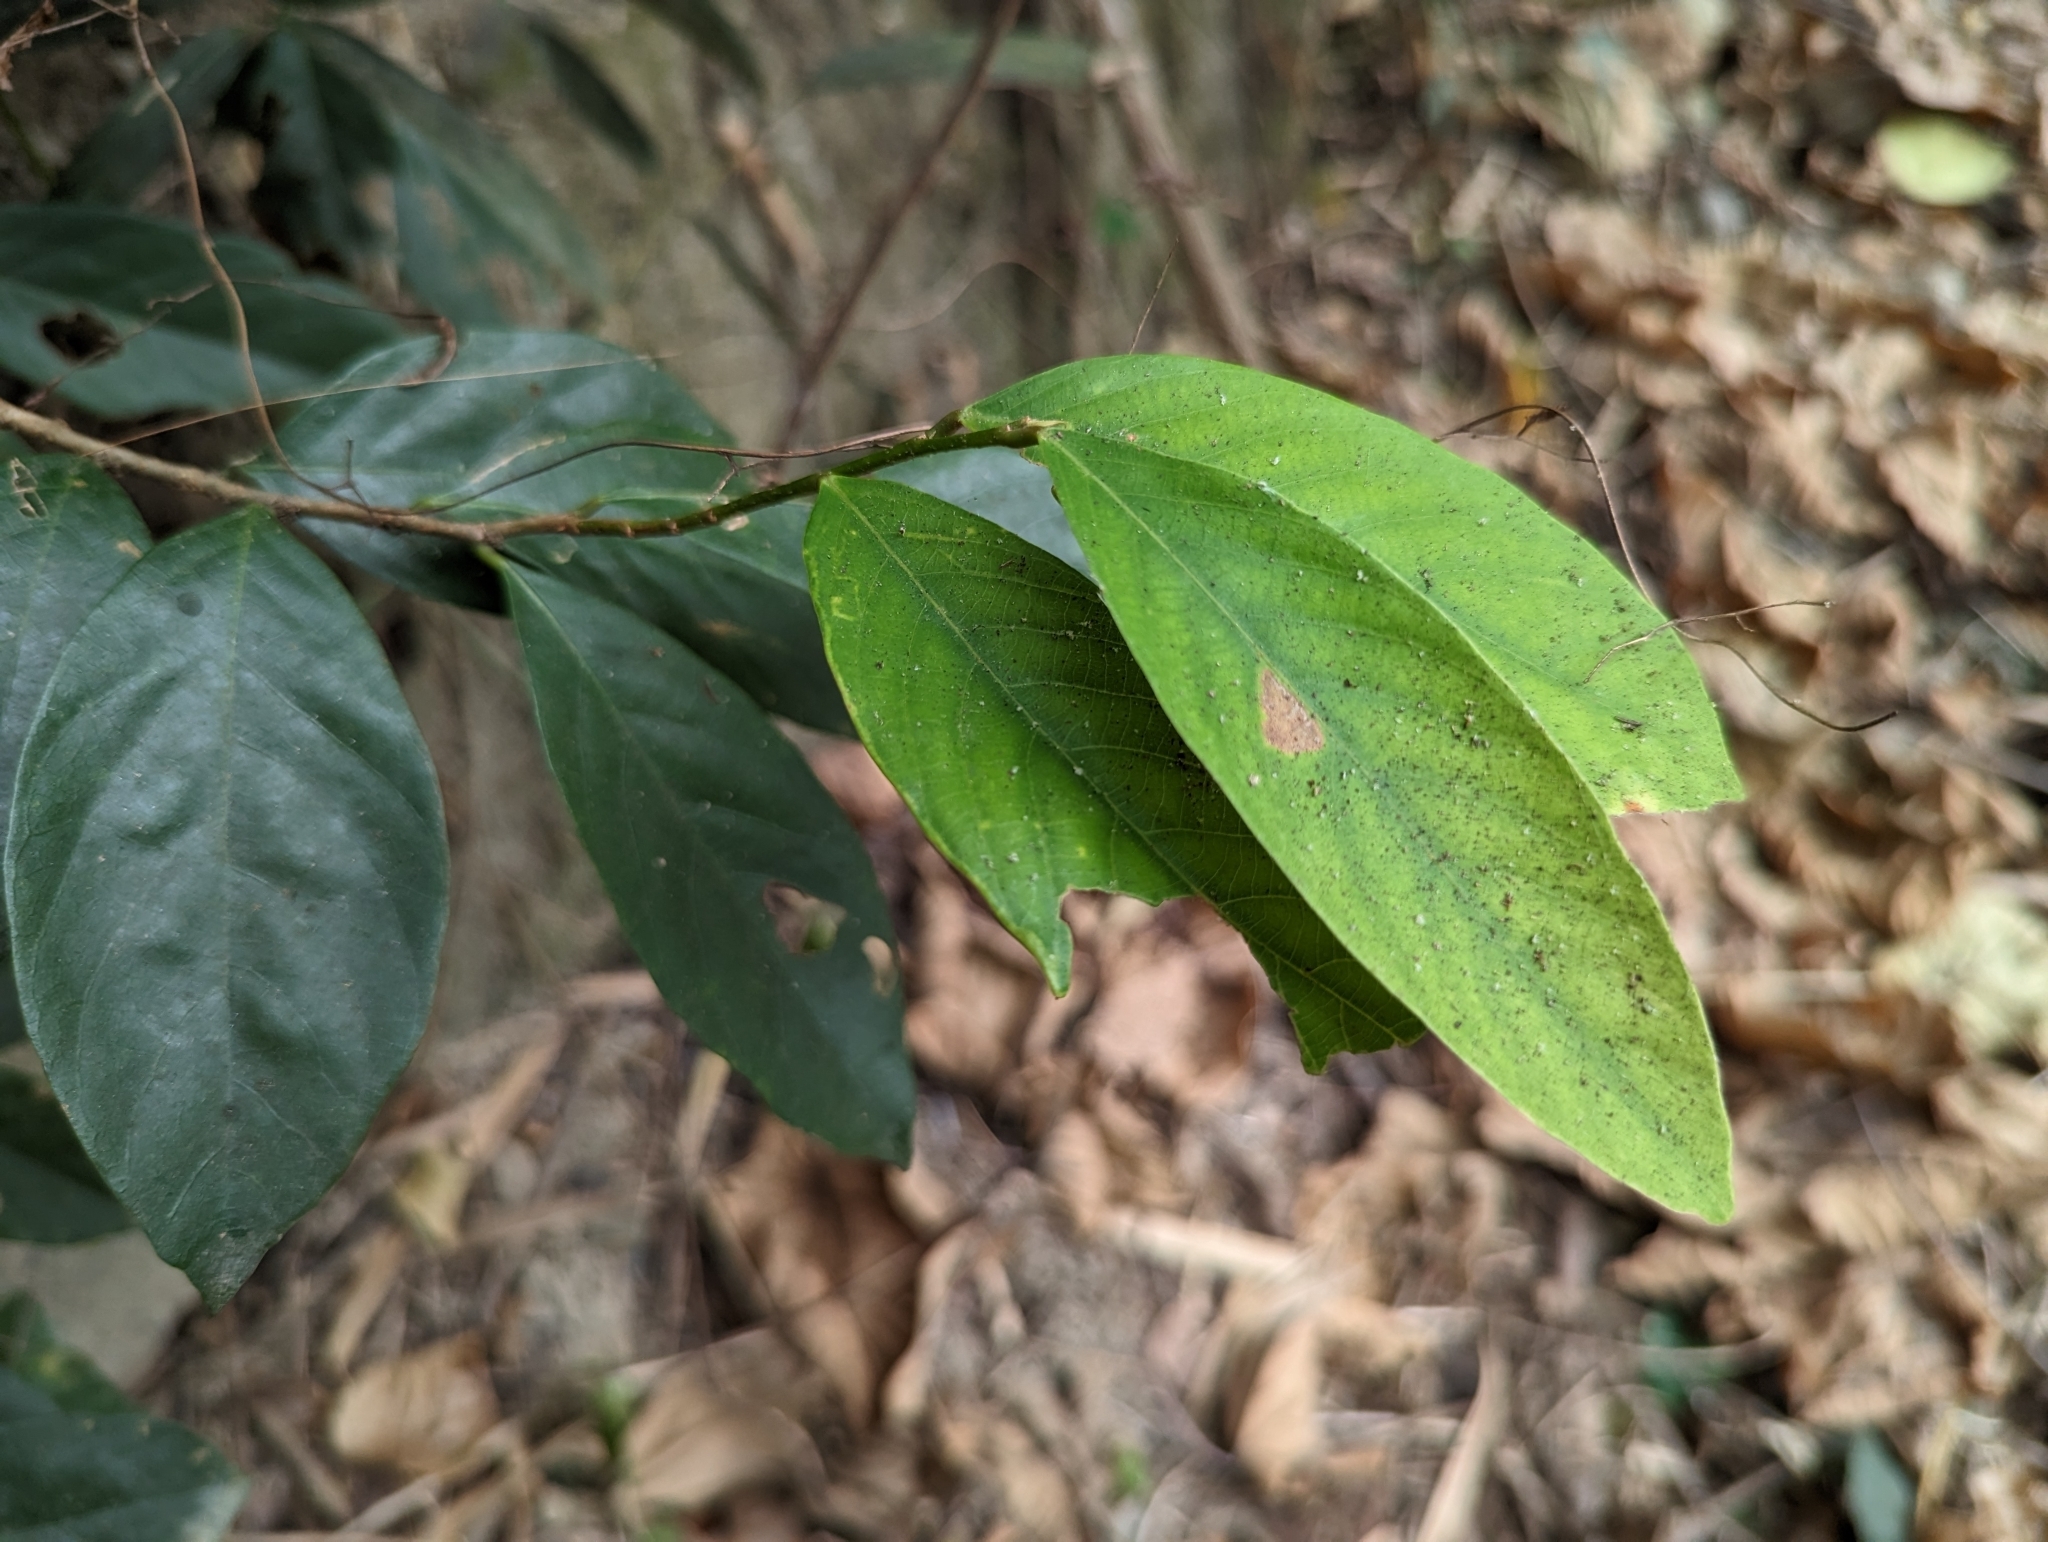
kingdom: Plantae
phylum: Tracheophyta
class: Magnoliopsida
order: Malpighiales
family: Phyllanthaceae
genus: Bridelia
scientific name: Bridelia balansae
